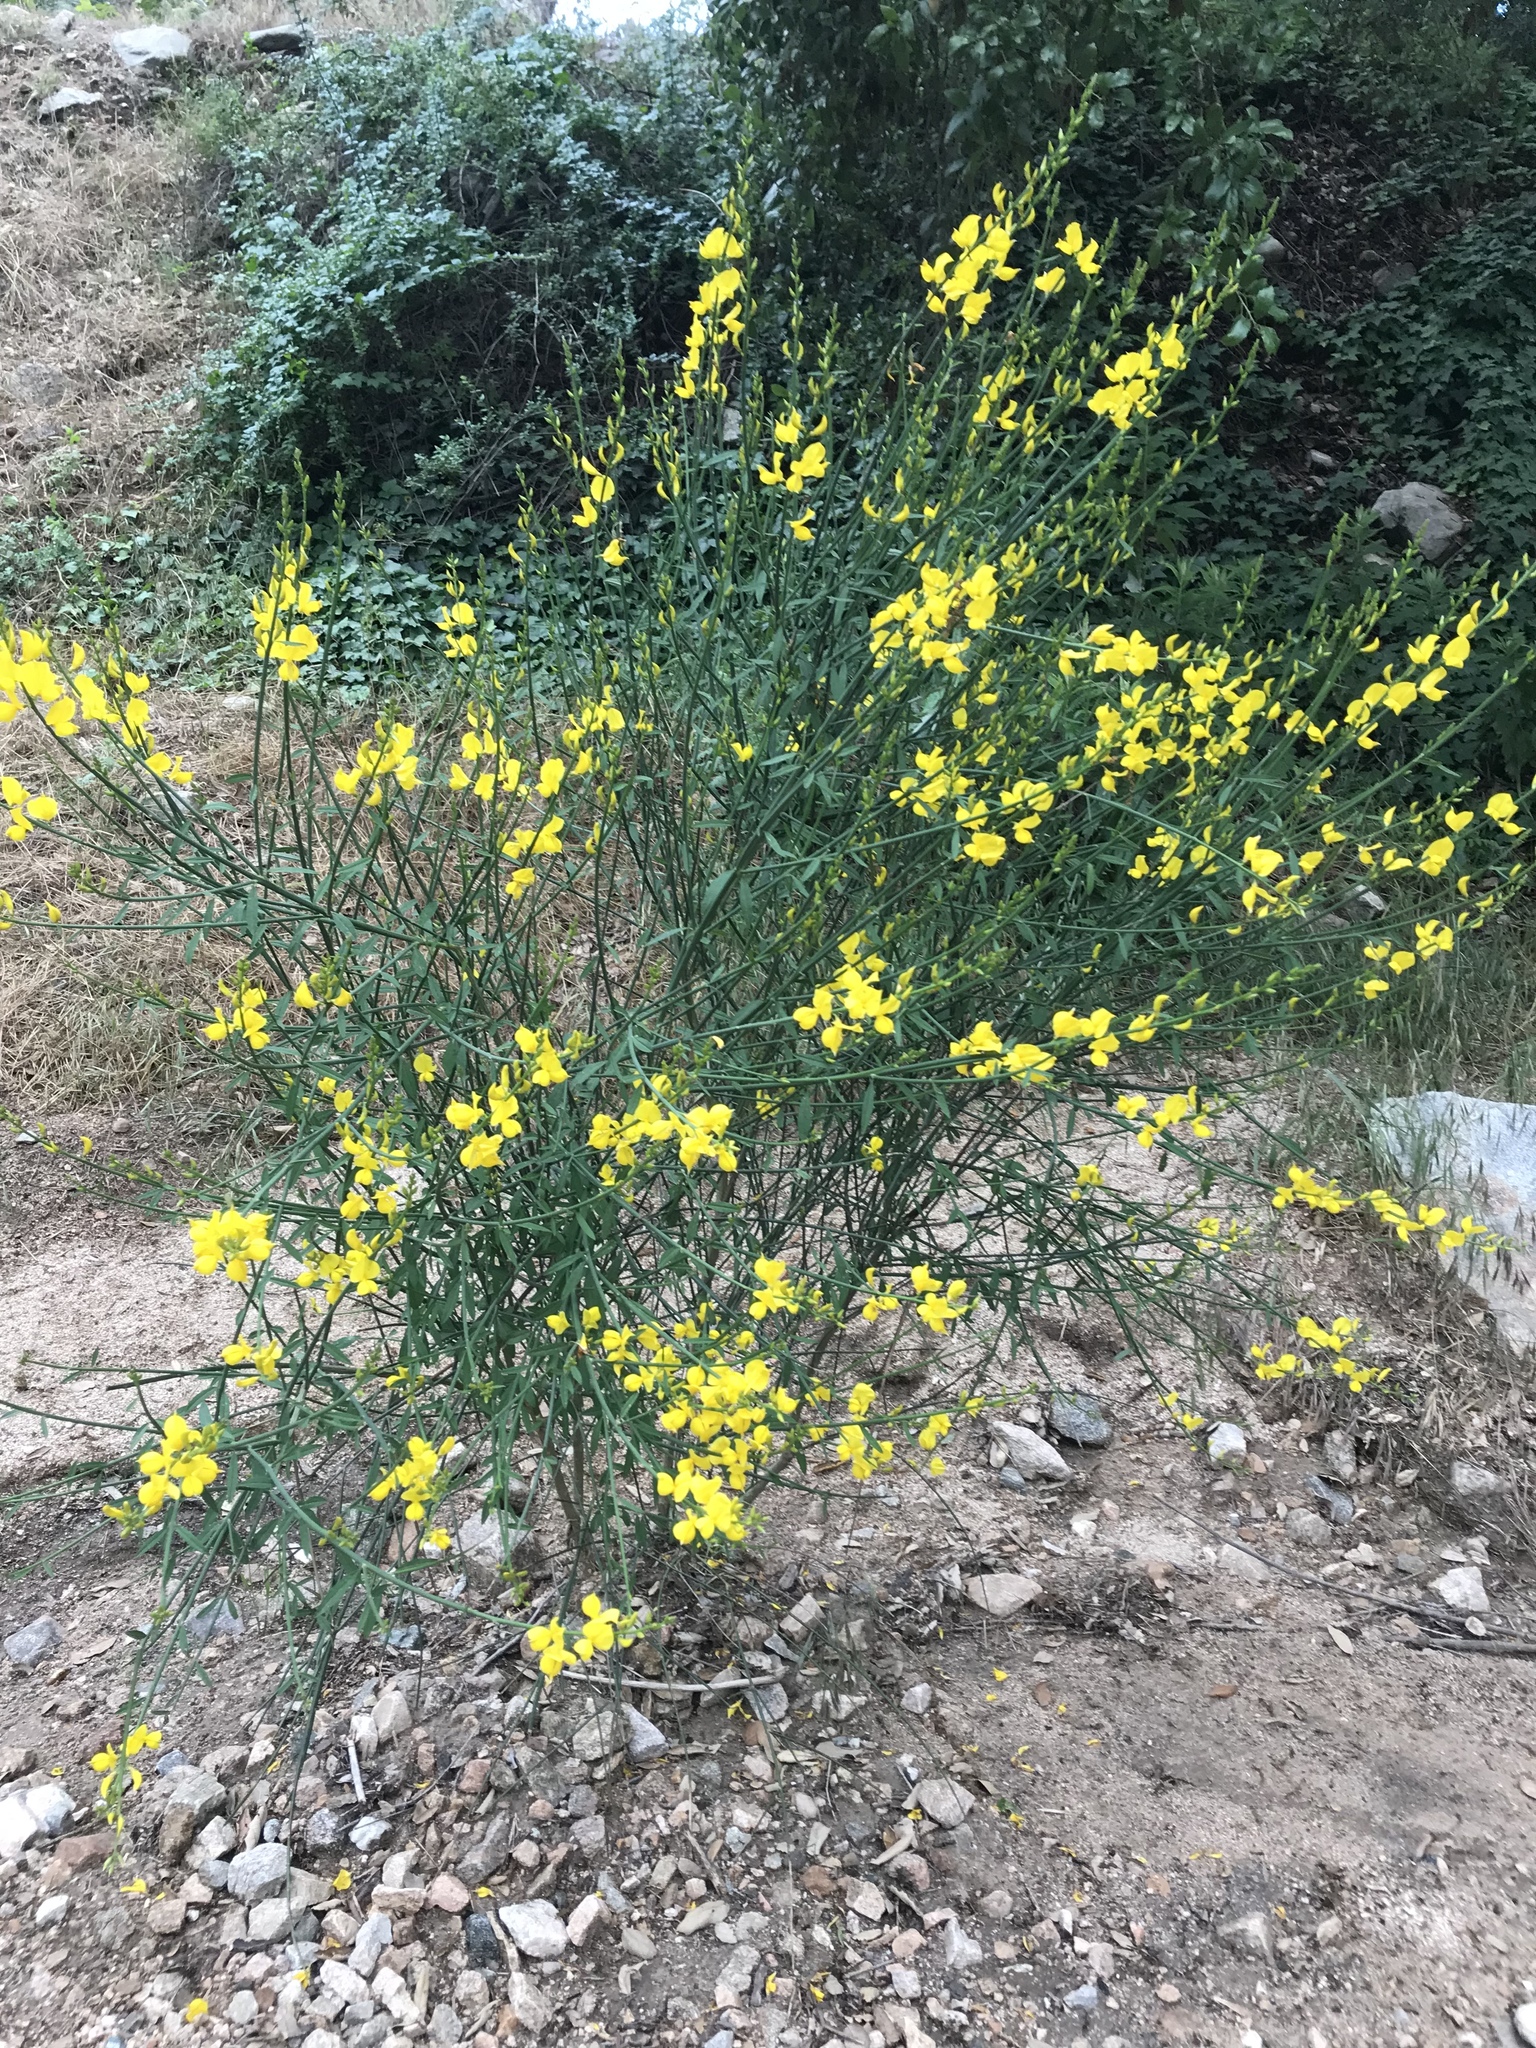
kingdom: Plantae
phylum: Tracheophyta
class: Magnoliopsida
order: Fabales
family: Fabaceae
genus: Spartium
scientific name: Spartium junceum
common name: Spanish broom
